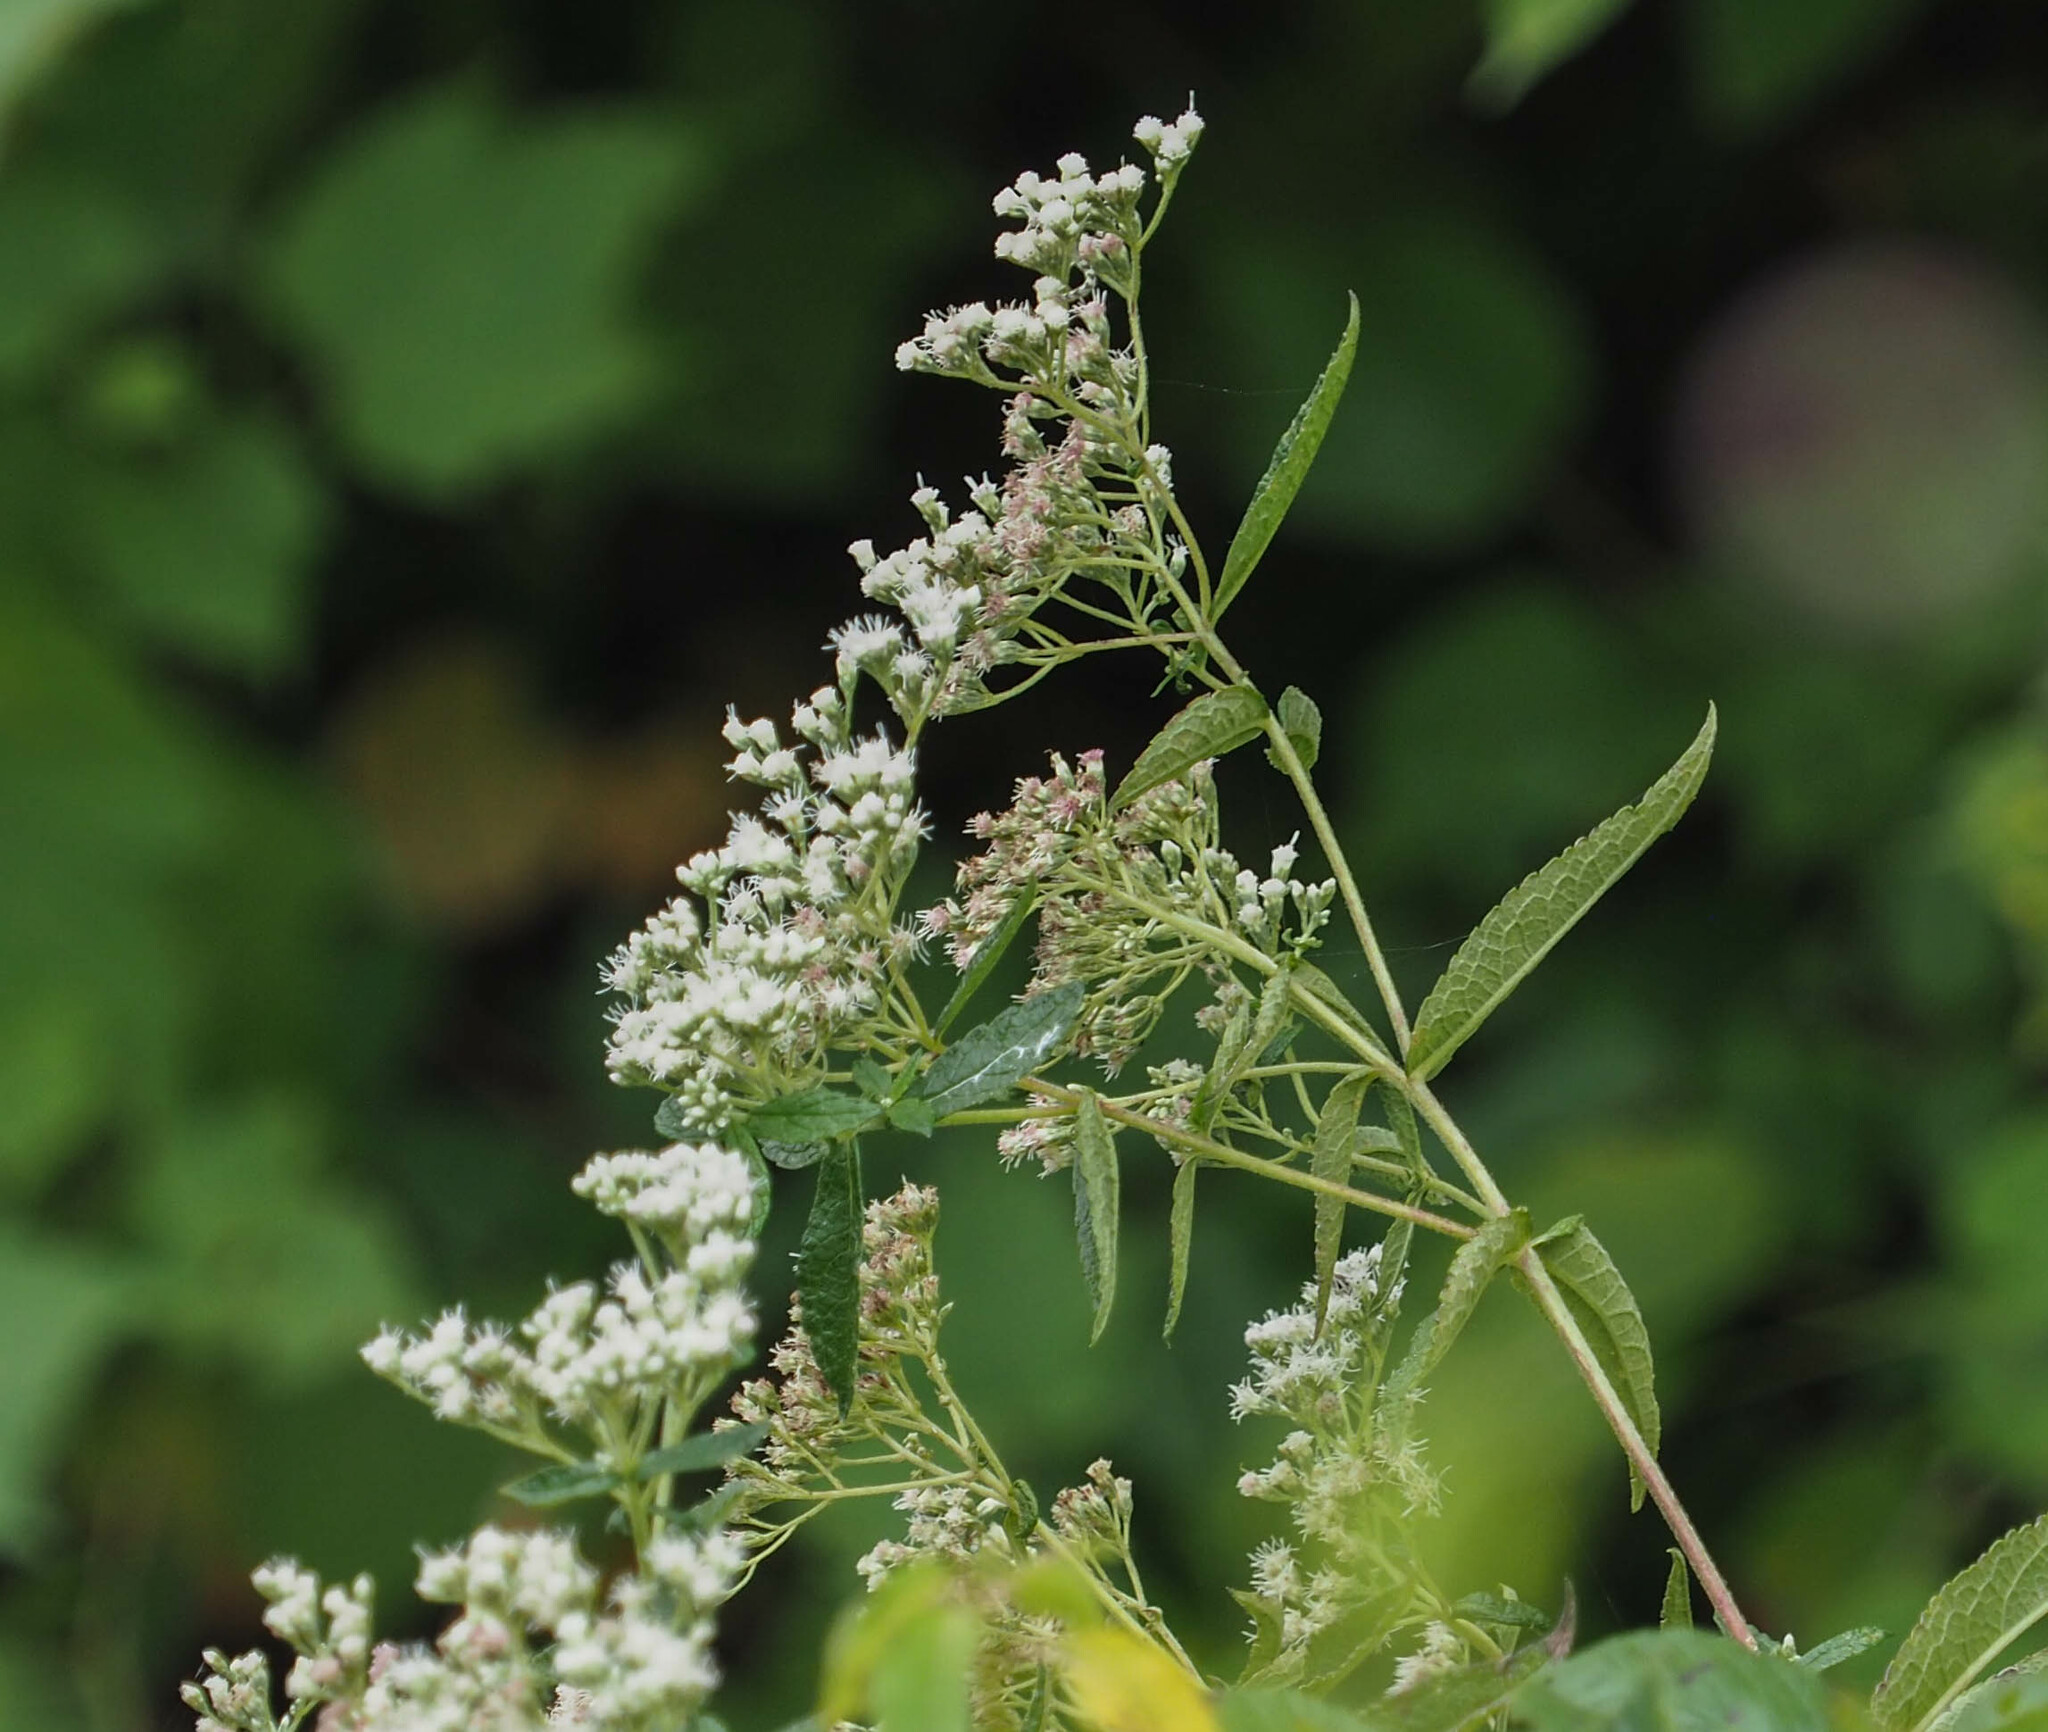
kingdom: Plantae
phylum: Tracheophyta
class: Magnoliopsida
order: Asterales
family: Asteraceae
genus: Eupatorium
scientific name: Eupatorium perfoliatum
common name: Boneset
